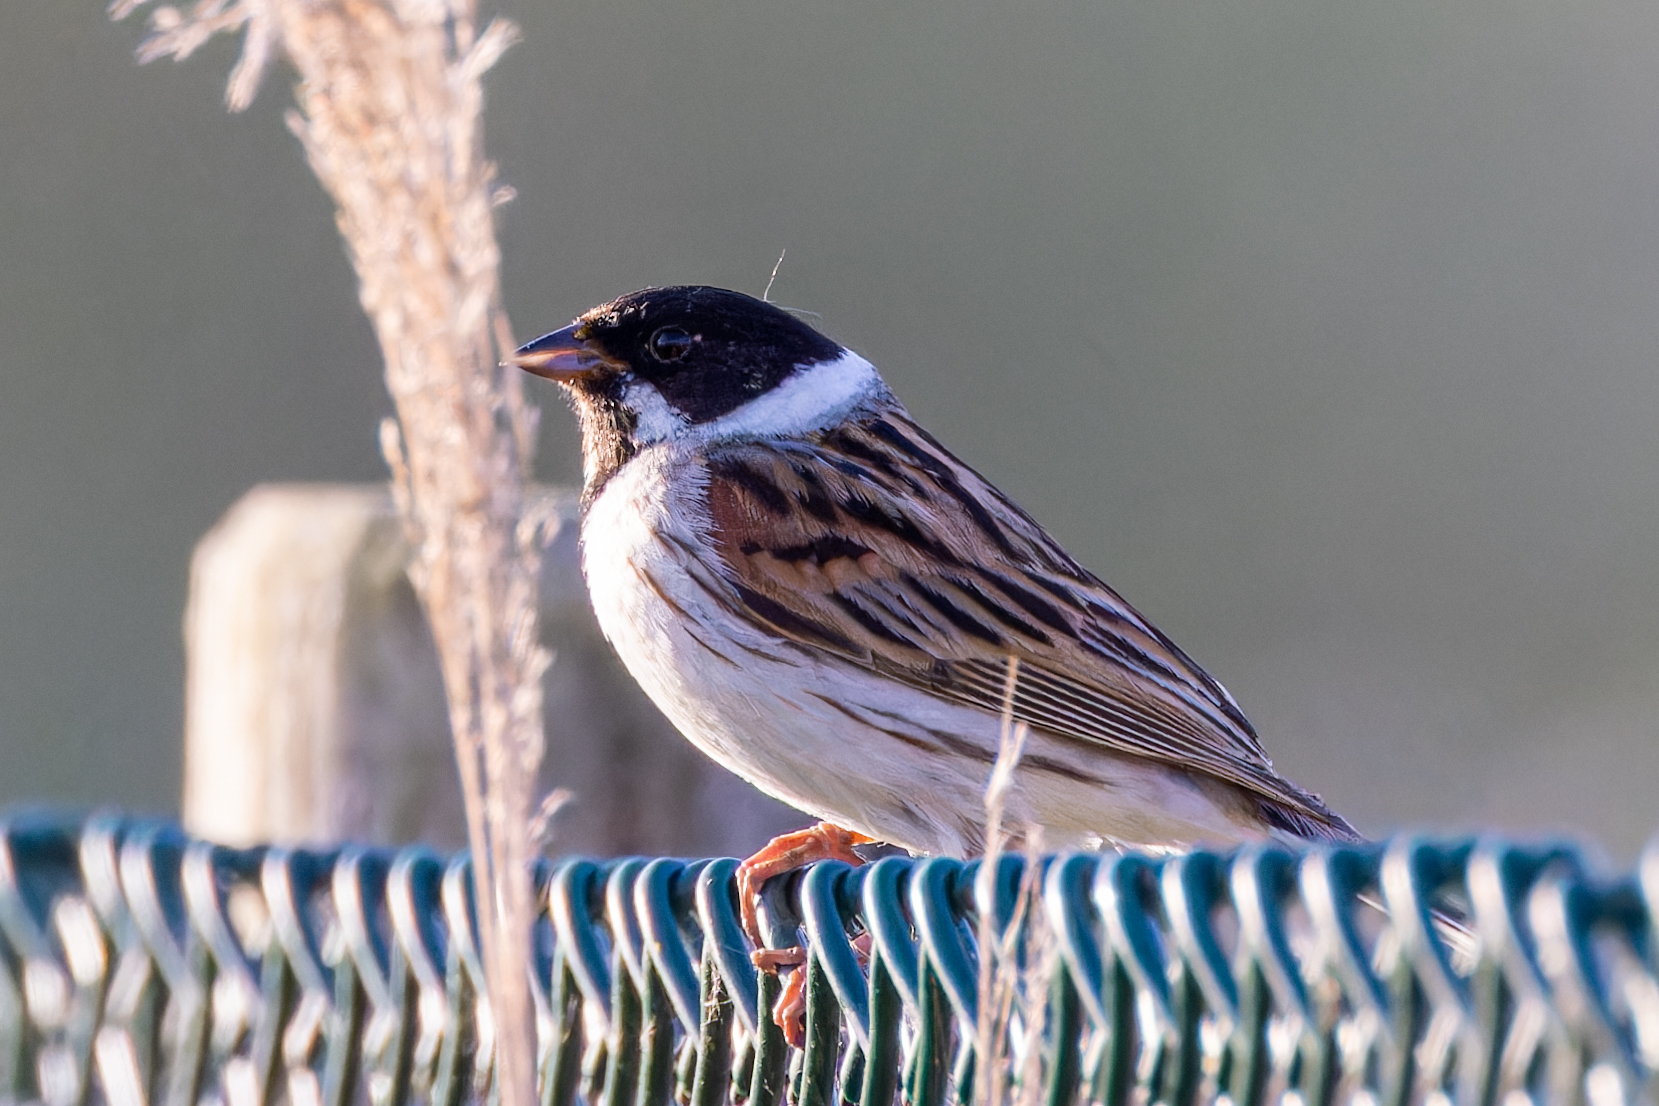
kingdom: Animalia
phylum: Chordata
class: Aves
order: Passeriformes
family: Emberizidae
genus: Emberiza
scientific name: Emberiza schoeniclus
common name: Reed bunting
